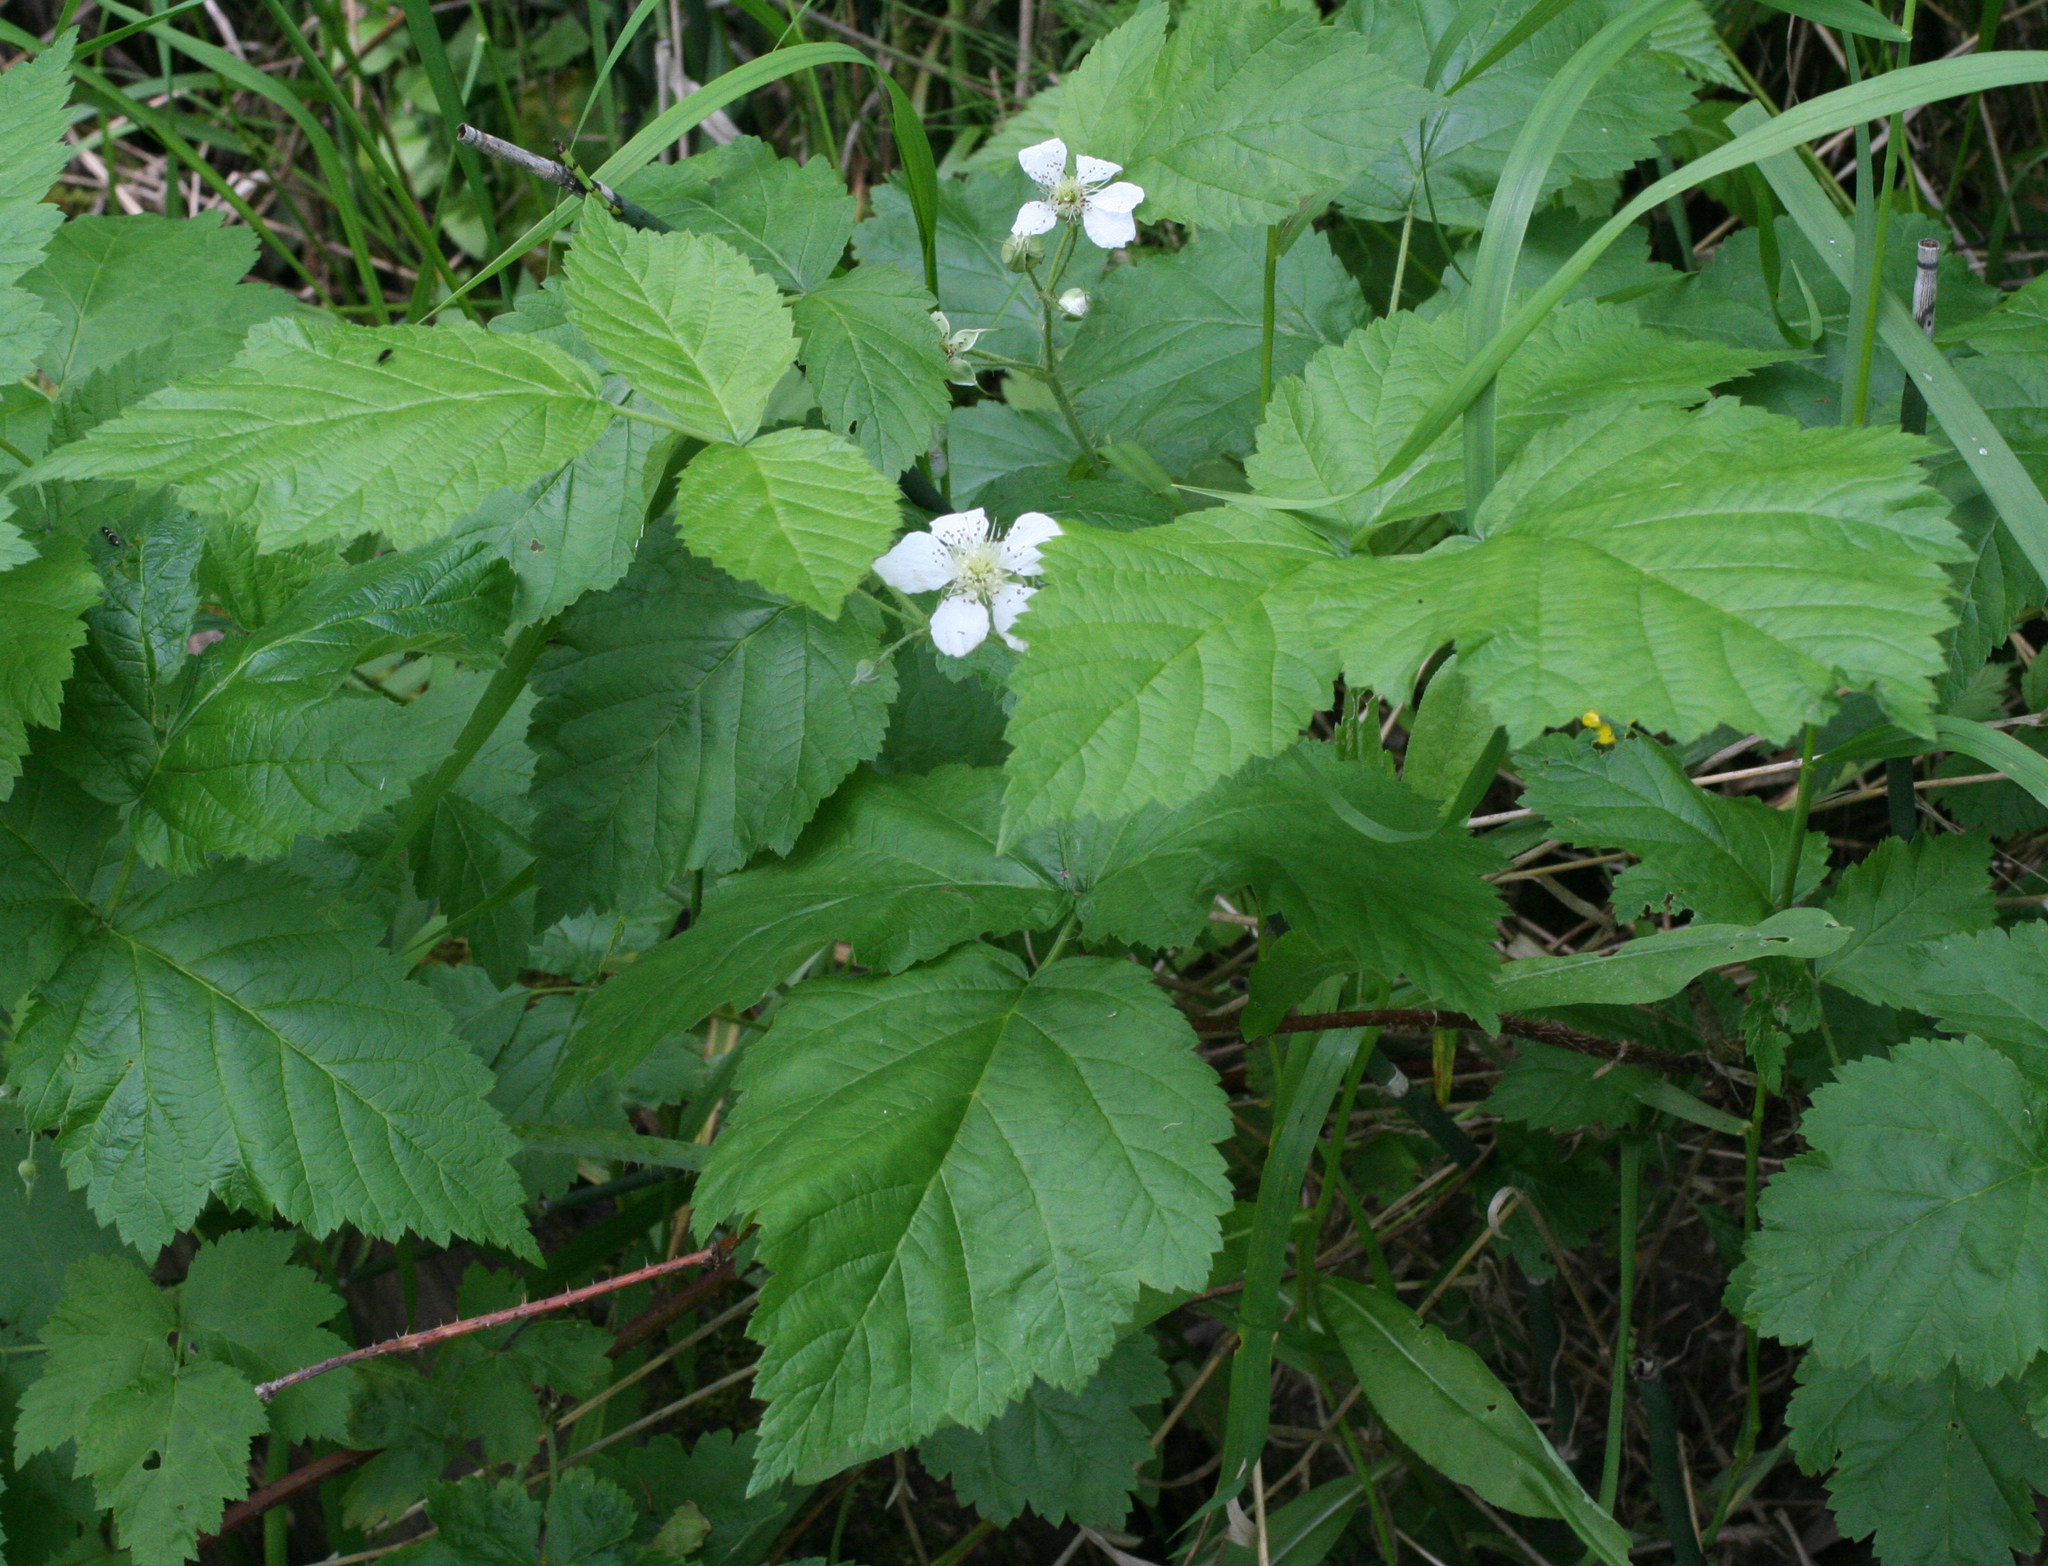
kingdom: Plantae
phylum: Tracheophyta
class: Magnoliopsida
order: Rosales
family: Rosaceae
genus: Rubus
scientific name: Rubus caesius
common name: Dewberry
